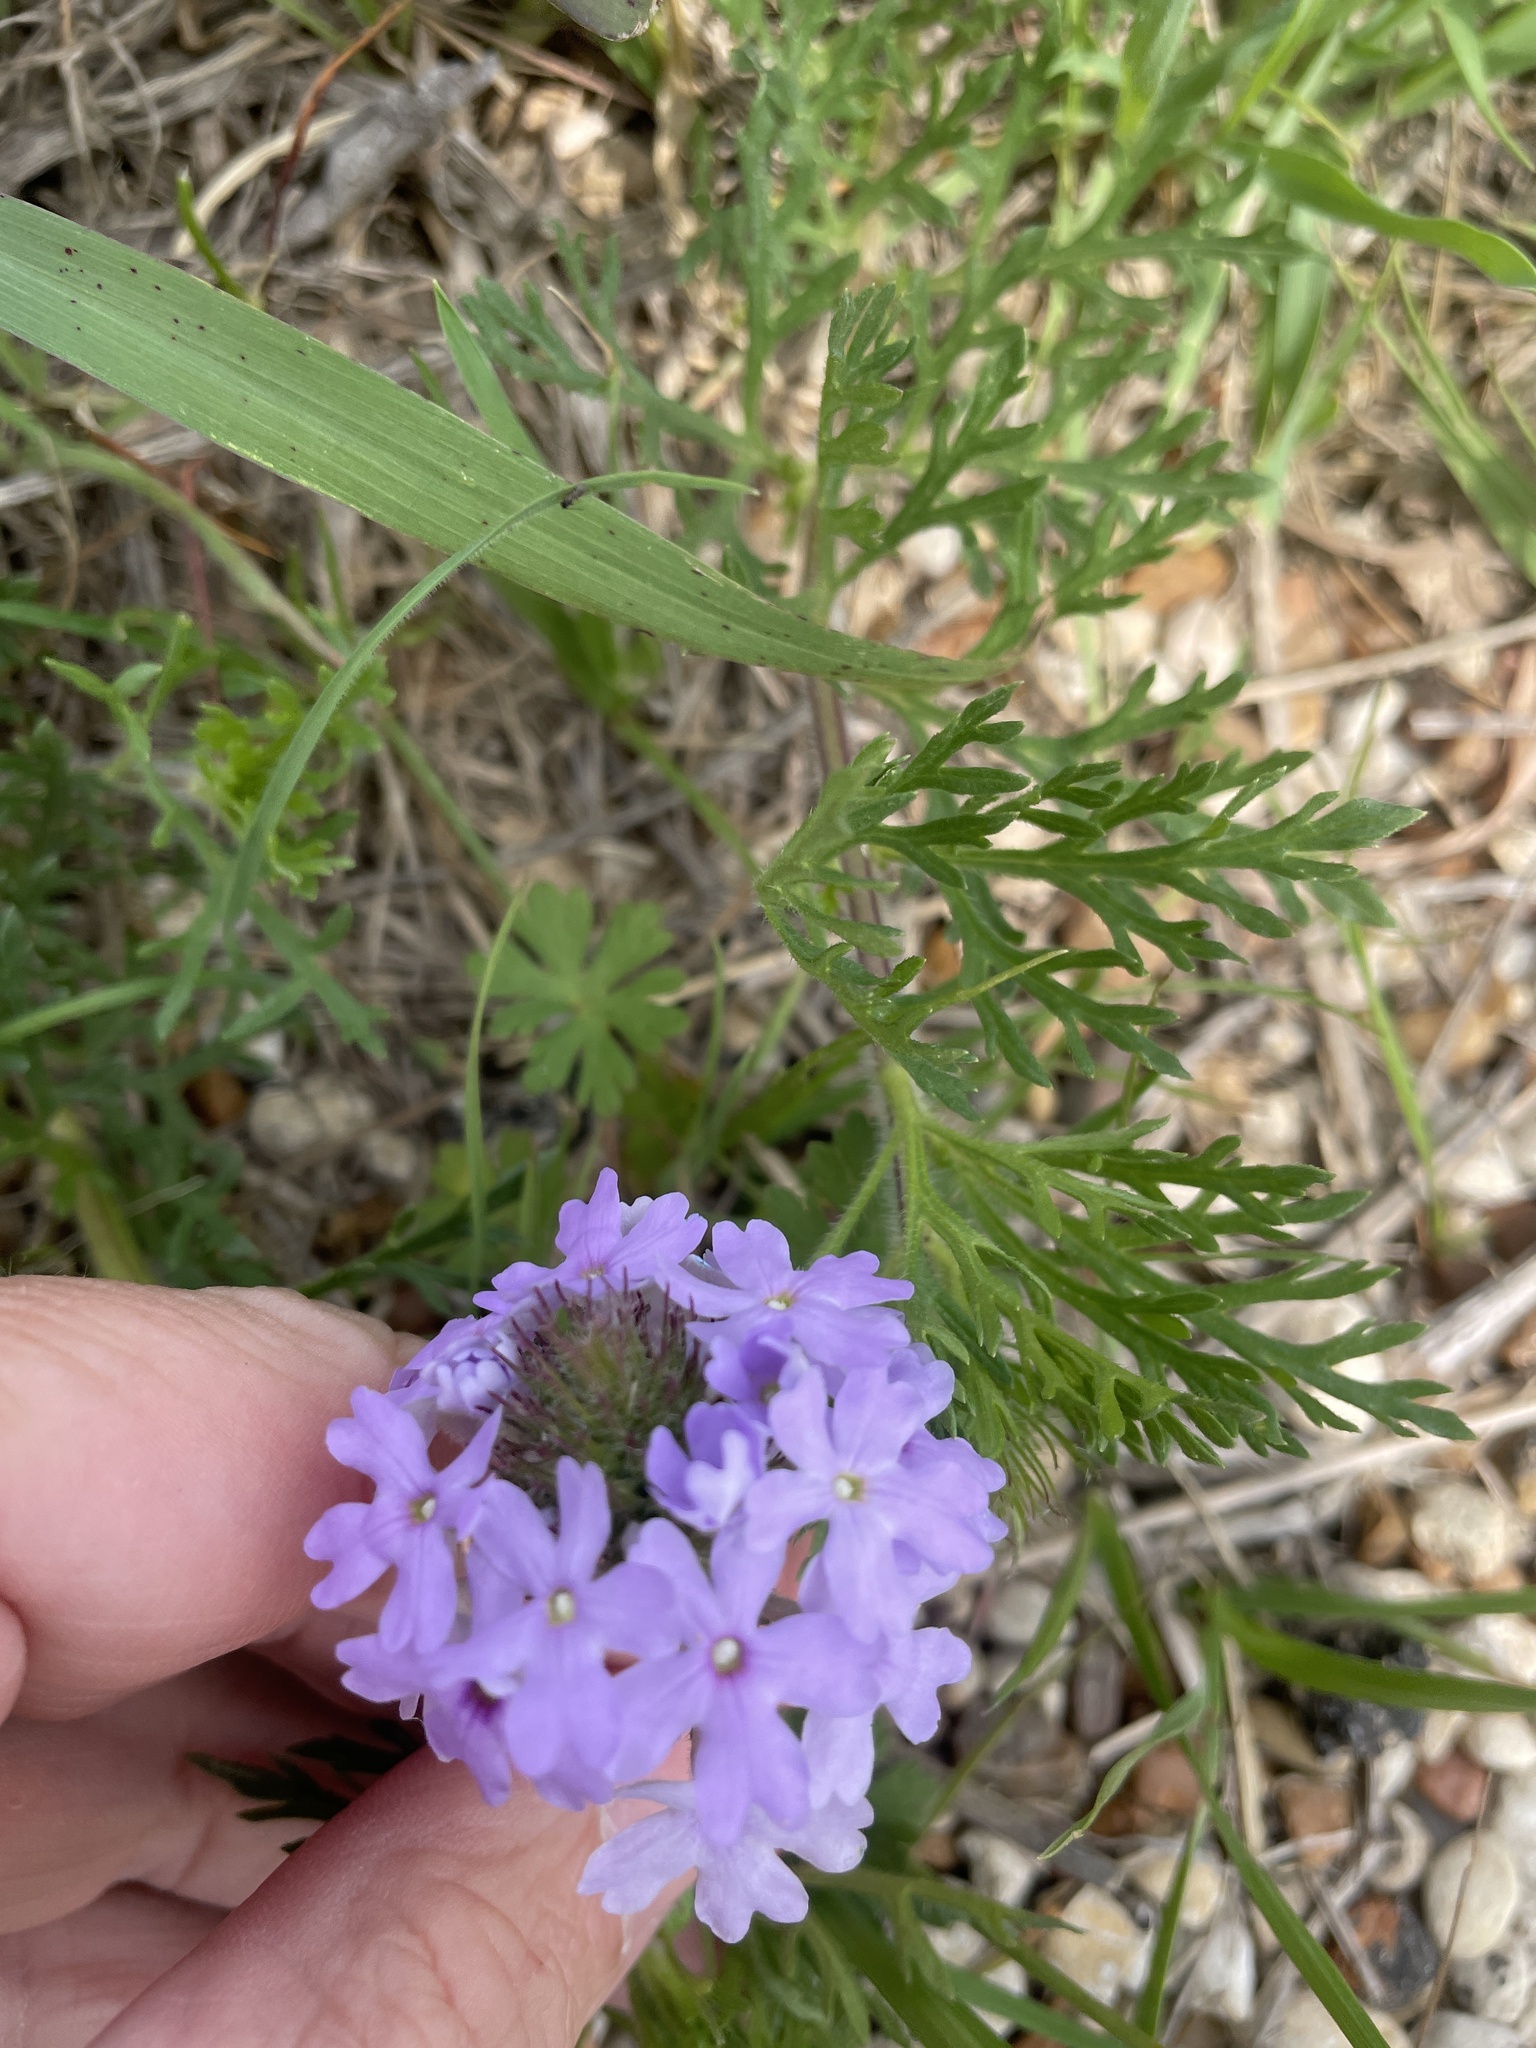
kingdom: Plantae
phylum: Tracheophyta
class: Magnoliopsida
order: Lamiales
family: Verbenaceae
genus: Verbena
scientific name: Verbena bipinnatifida
